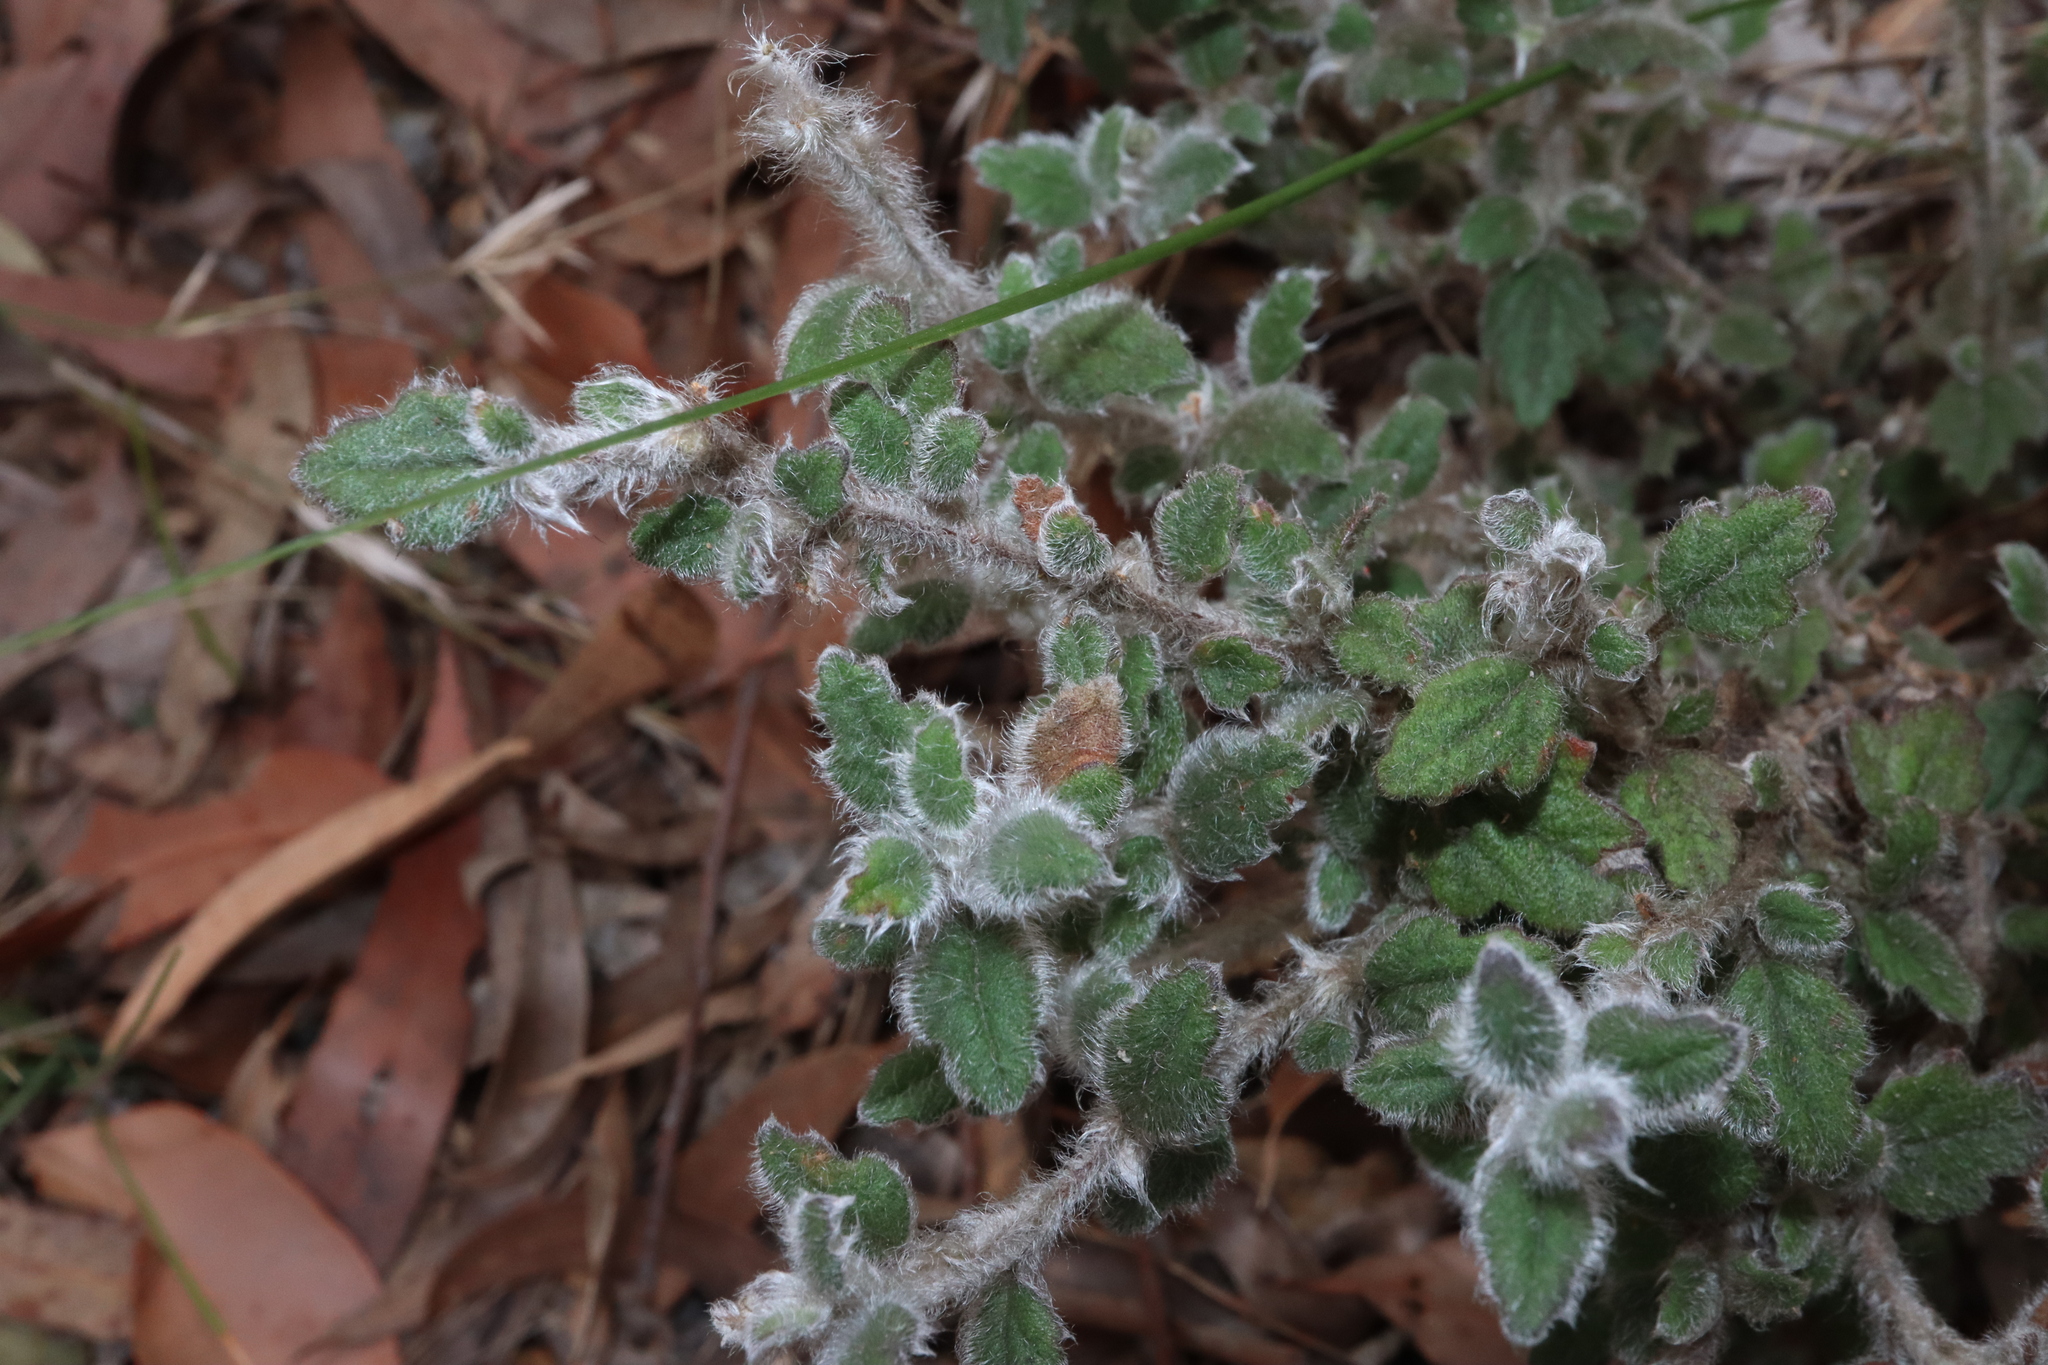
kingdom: Plantae
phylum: Tracheophyta
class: Magnoliopsida
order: Apiales
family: Apiaceae
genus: Xanthosia
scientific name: Xanthosia pilosa
